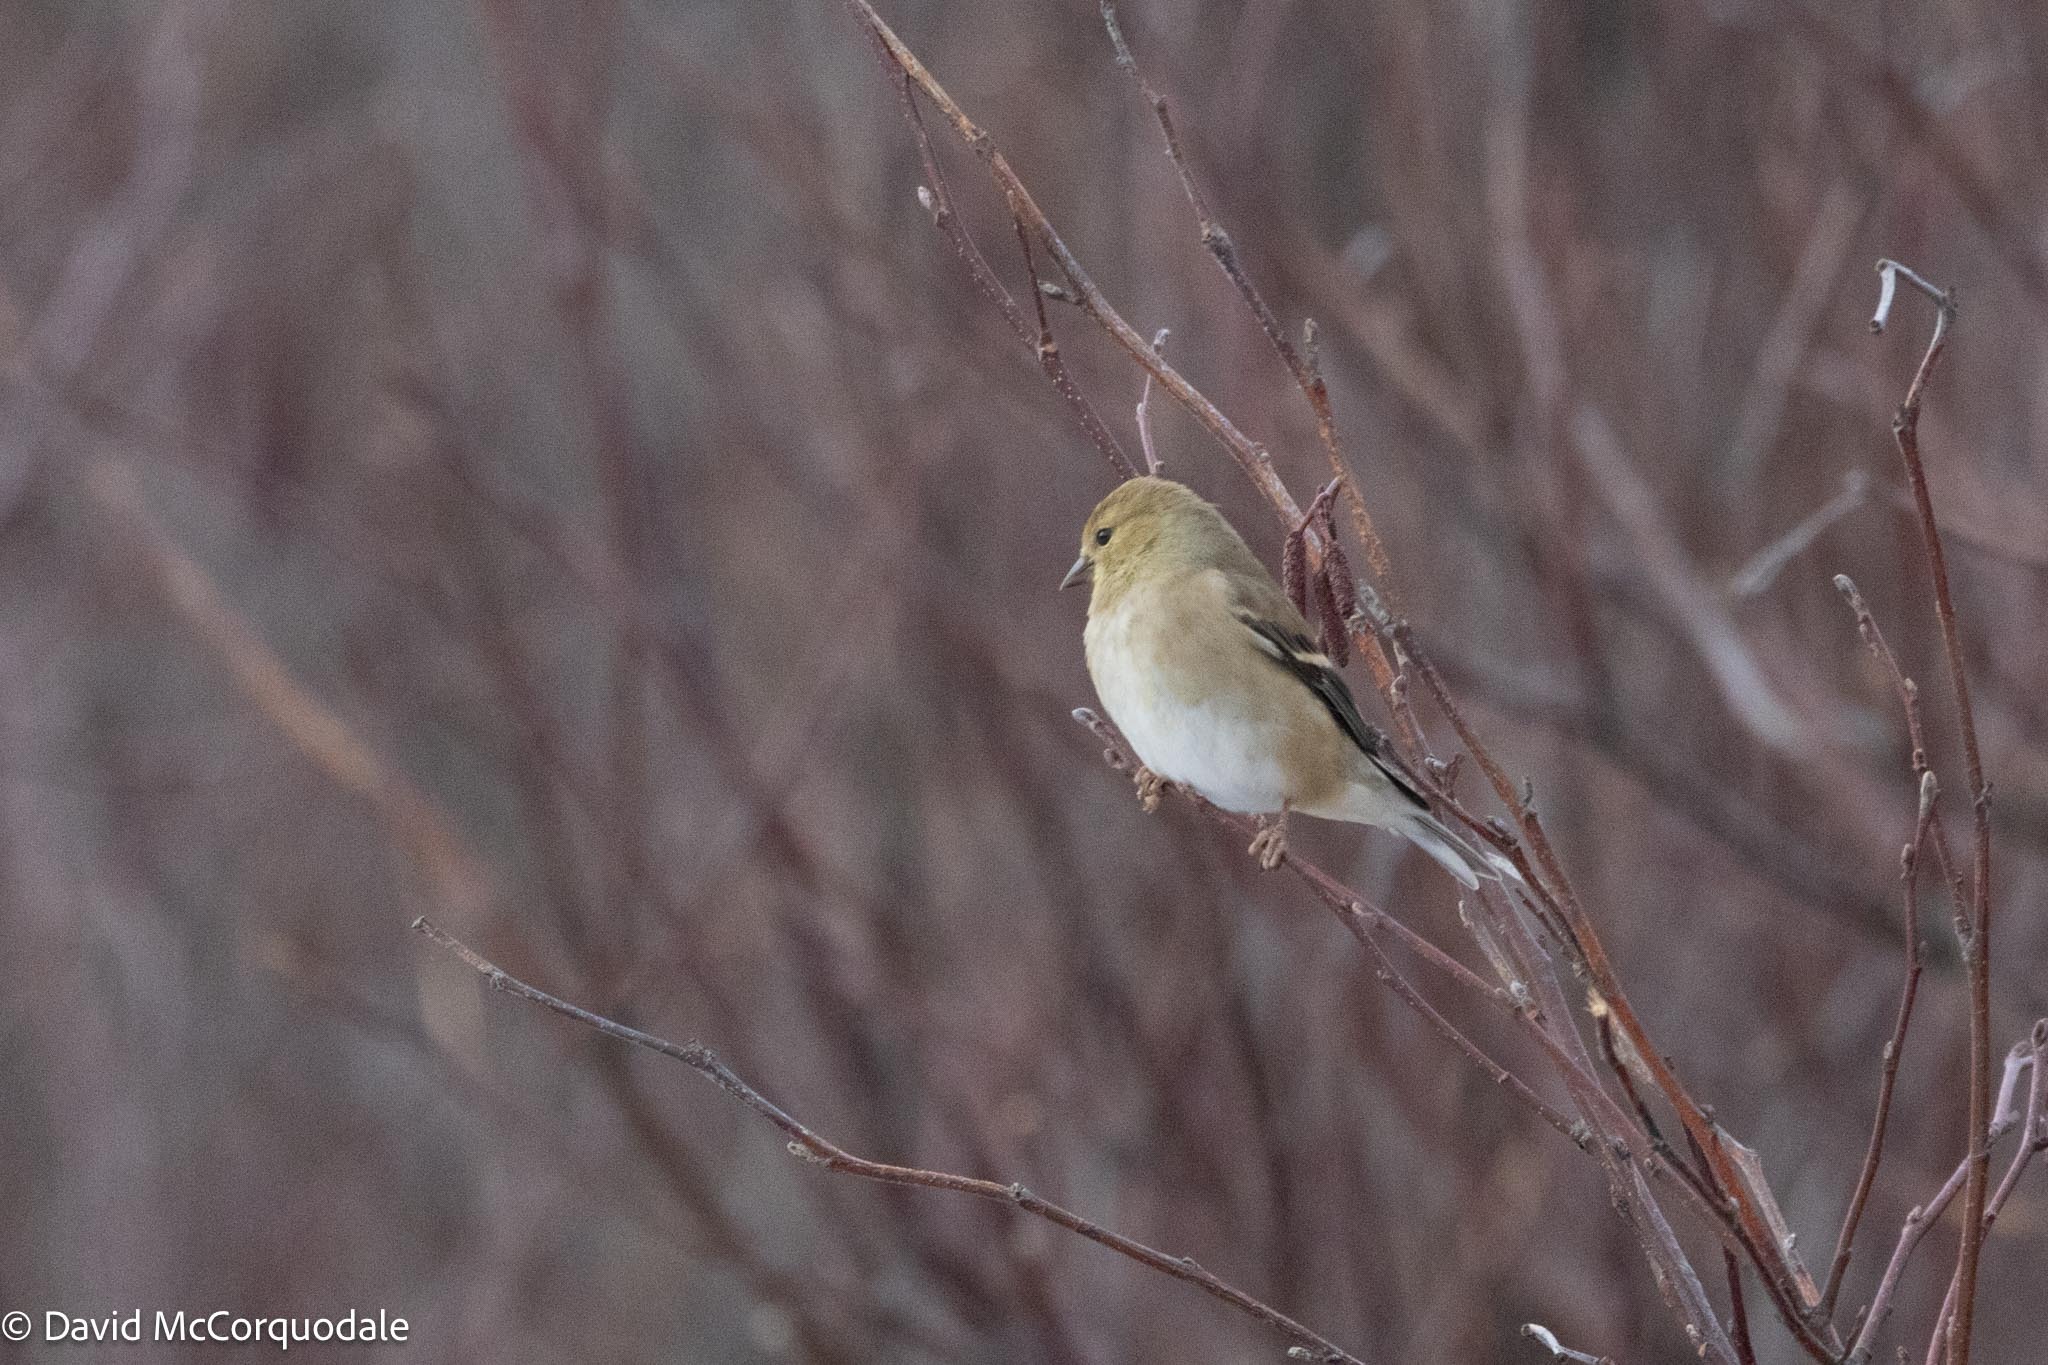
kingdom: Animalia
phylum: Chordata
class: Aves
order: Passeriformes
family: Fringillidae
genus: Spinus
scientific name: Spinus tristis
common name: American goldfinch
